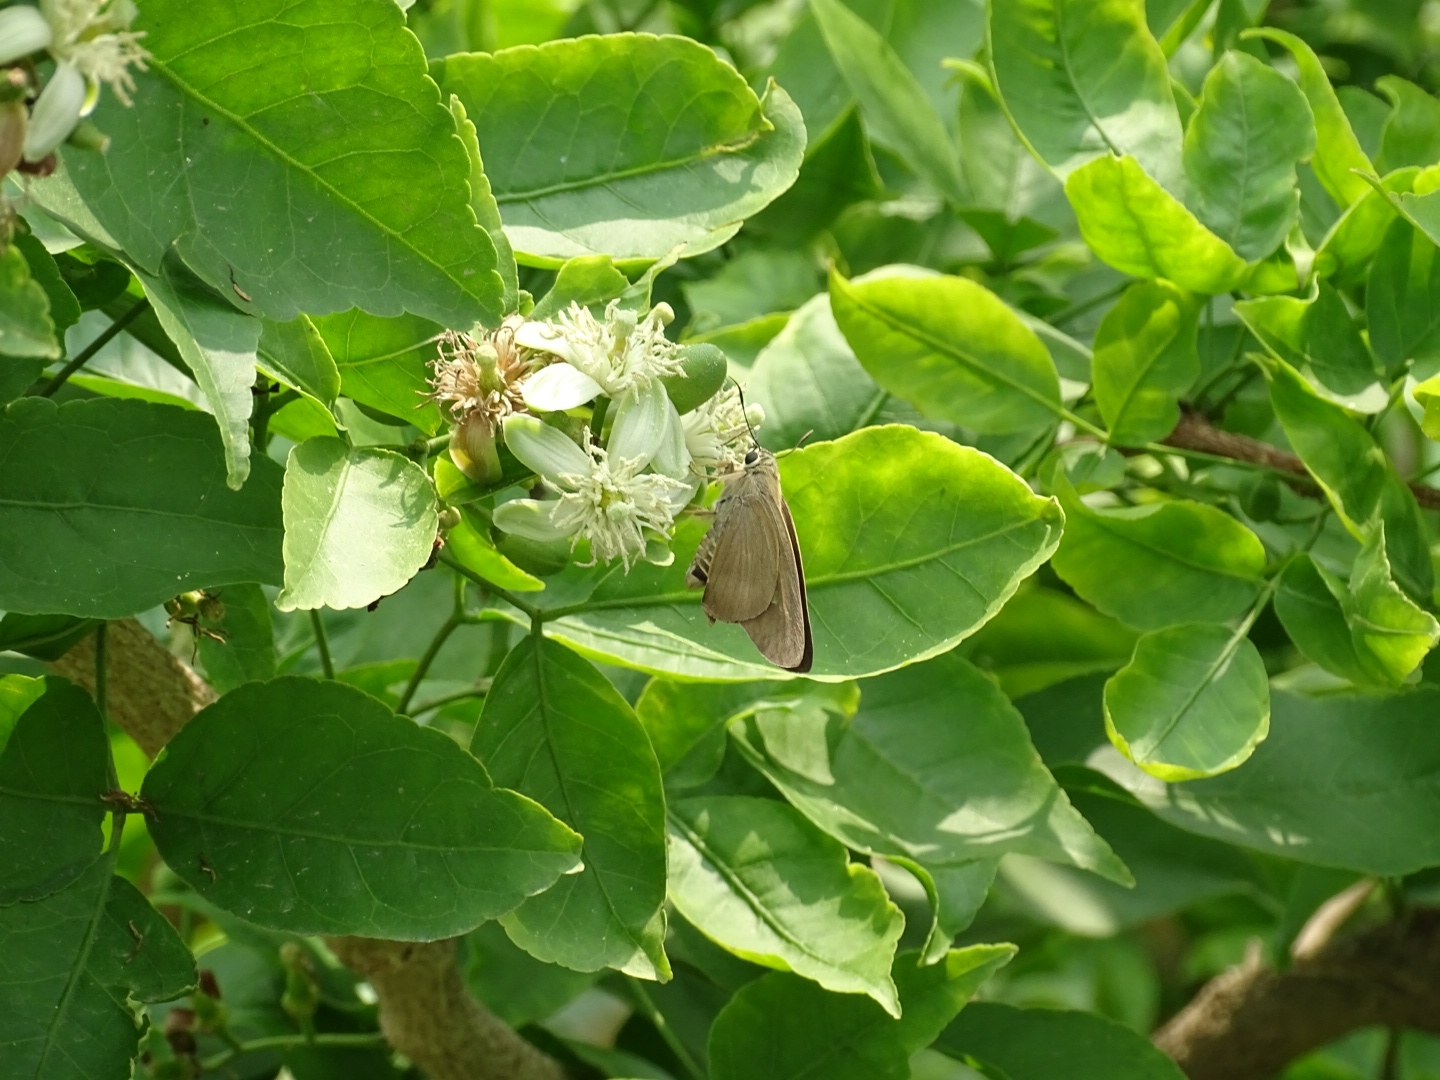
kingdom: Animalia
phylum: Arthropoda
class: Insecta
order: Lepidoptera
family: Hesperiidae
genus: Badamia
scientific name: Badamia exclamationis
